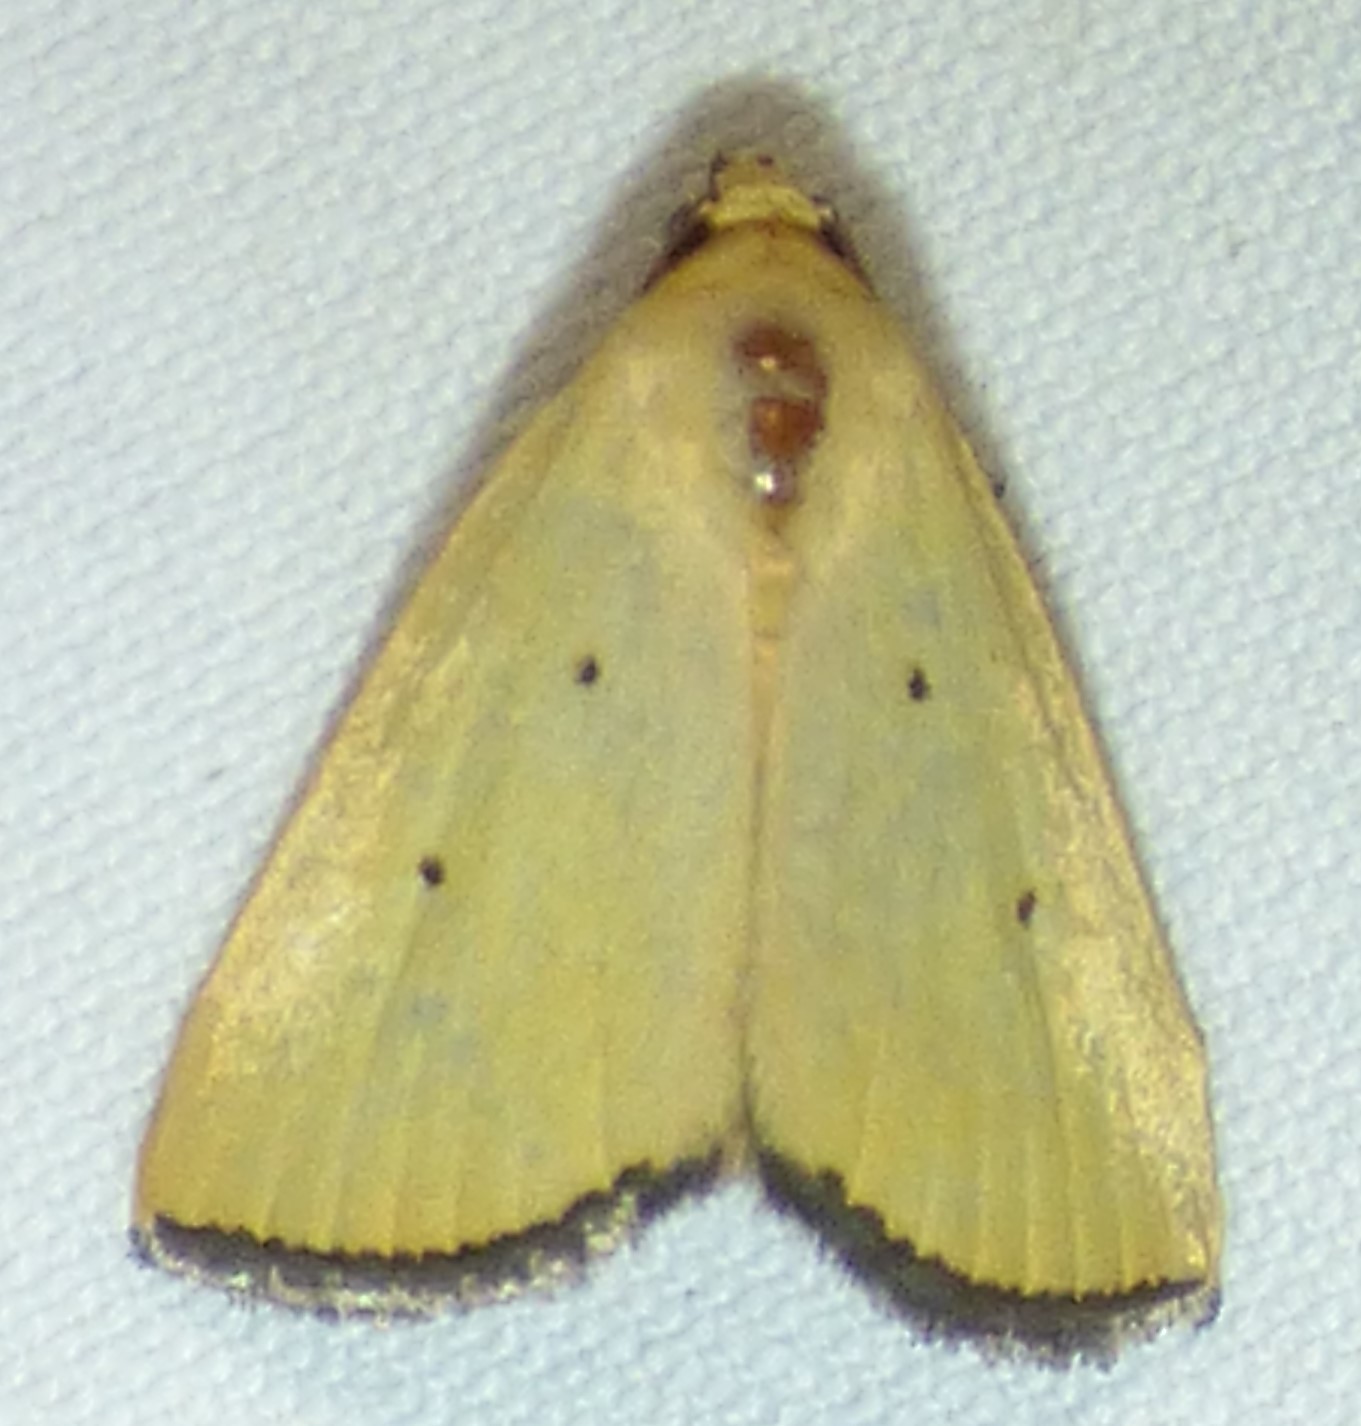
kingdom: Animalia
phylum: Arthropoda
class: Insecta
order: Lepidoptera
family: Noctuidae
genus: Marimatha
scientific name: Marimatha nigrofimbria
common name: Black-bordered lemon moth
